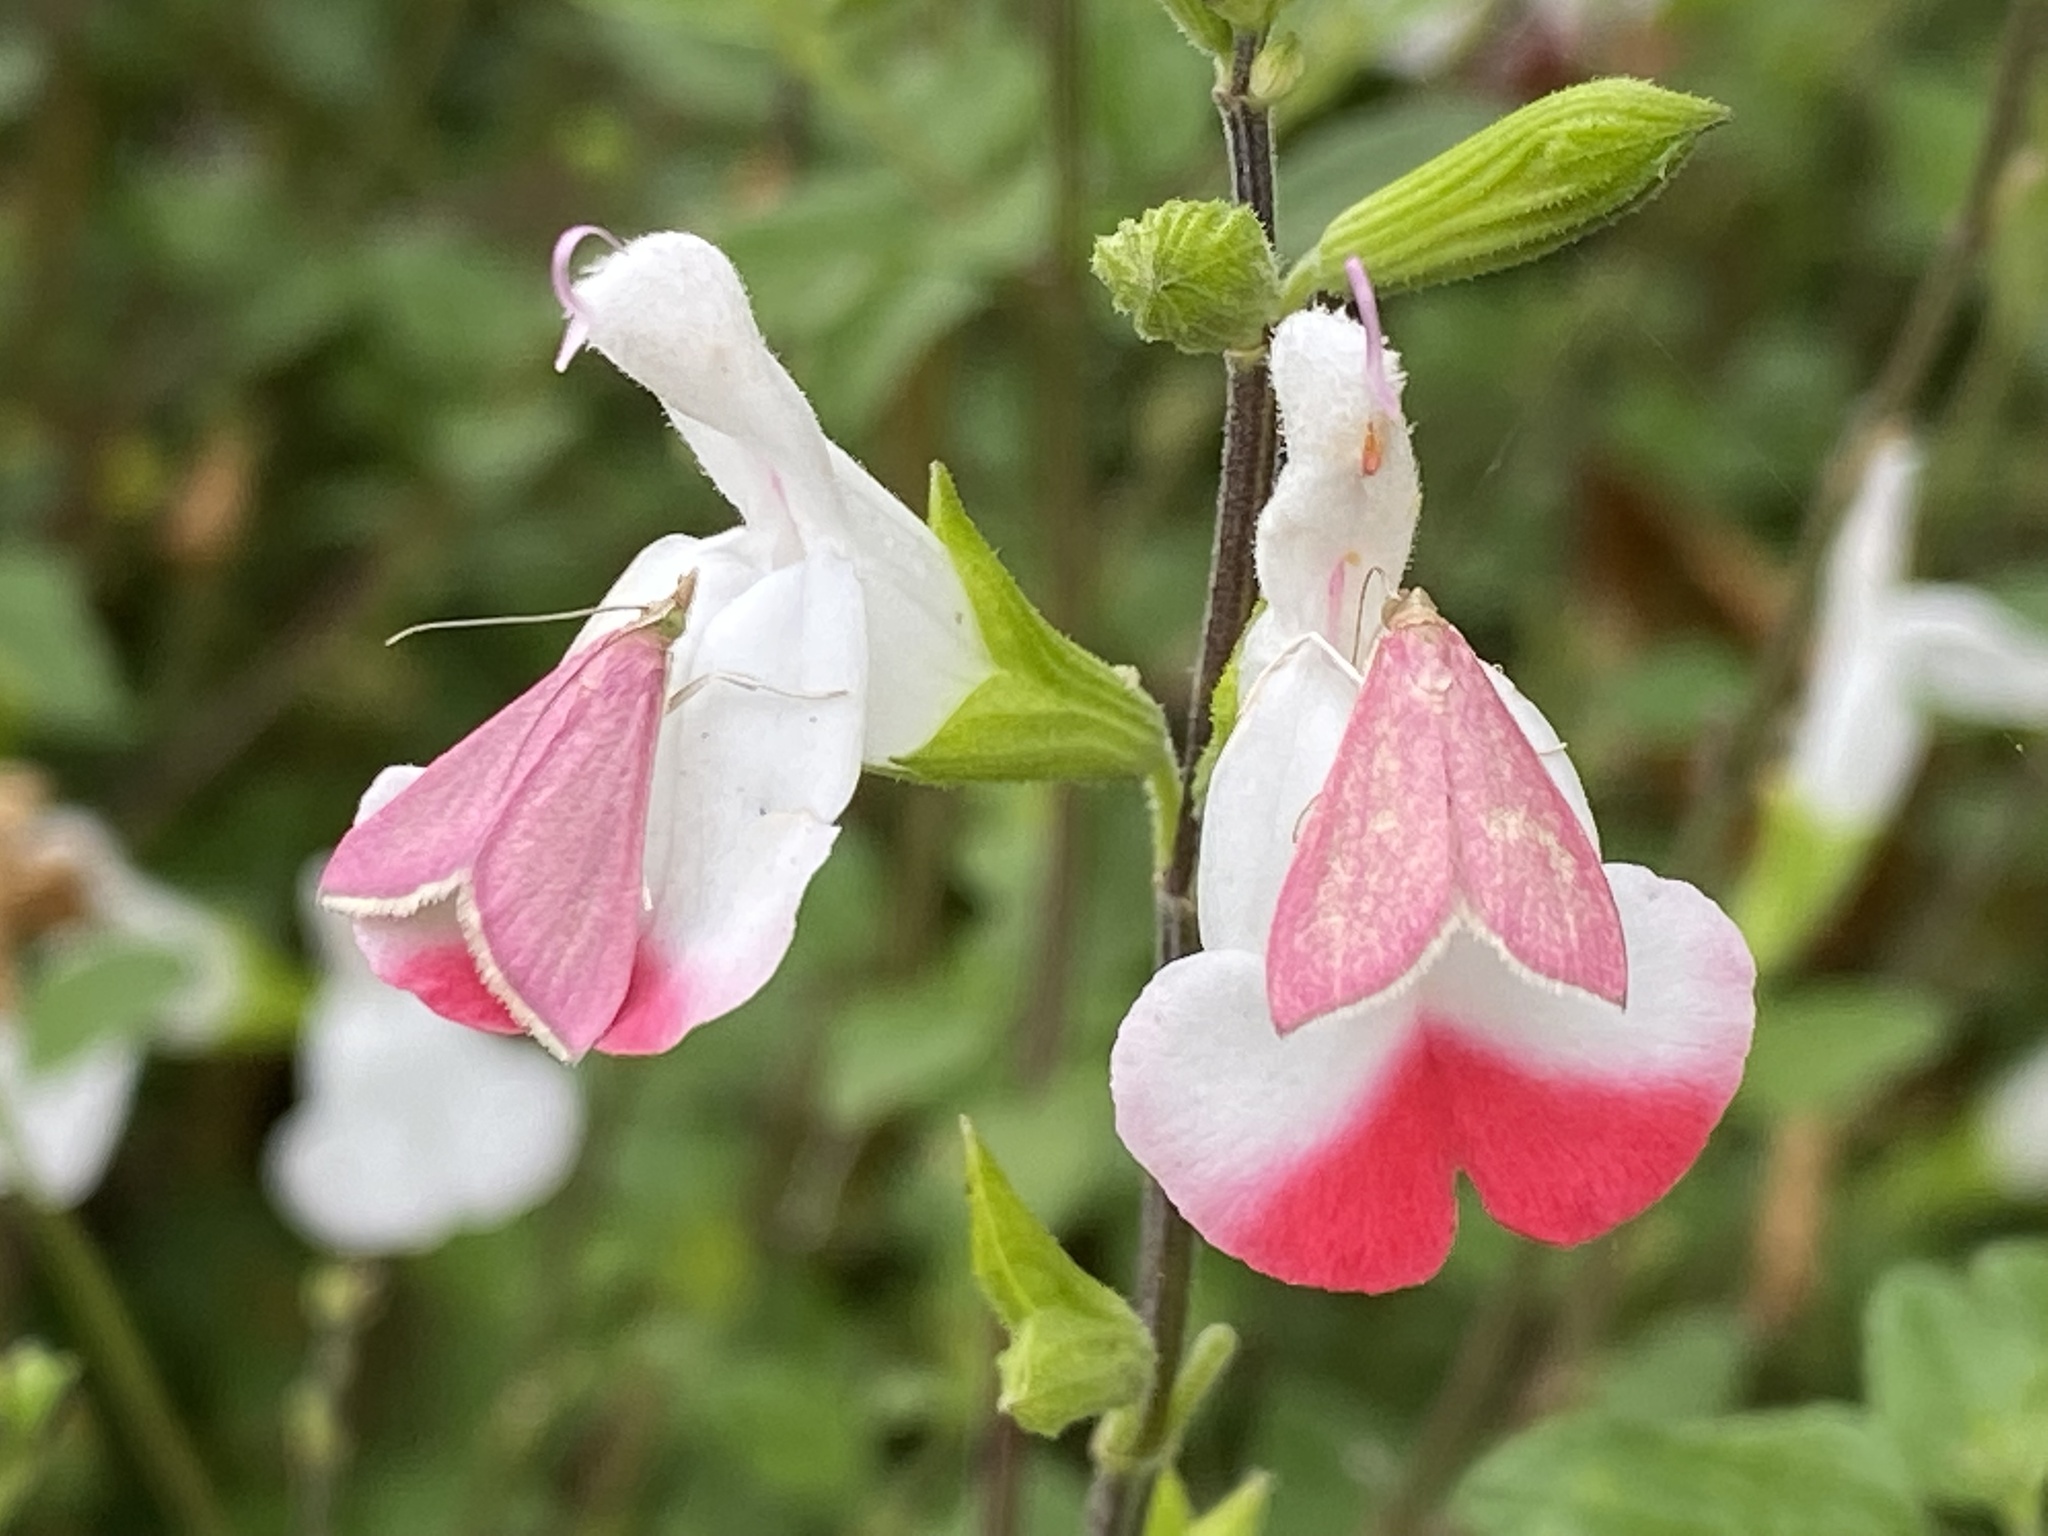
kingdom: Animalia
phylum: Arthropoda
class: Insecta
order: Lepidoptera
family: Crambidae
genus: Pyrausta
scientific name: Pyrausta inornatalis
